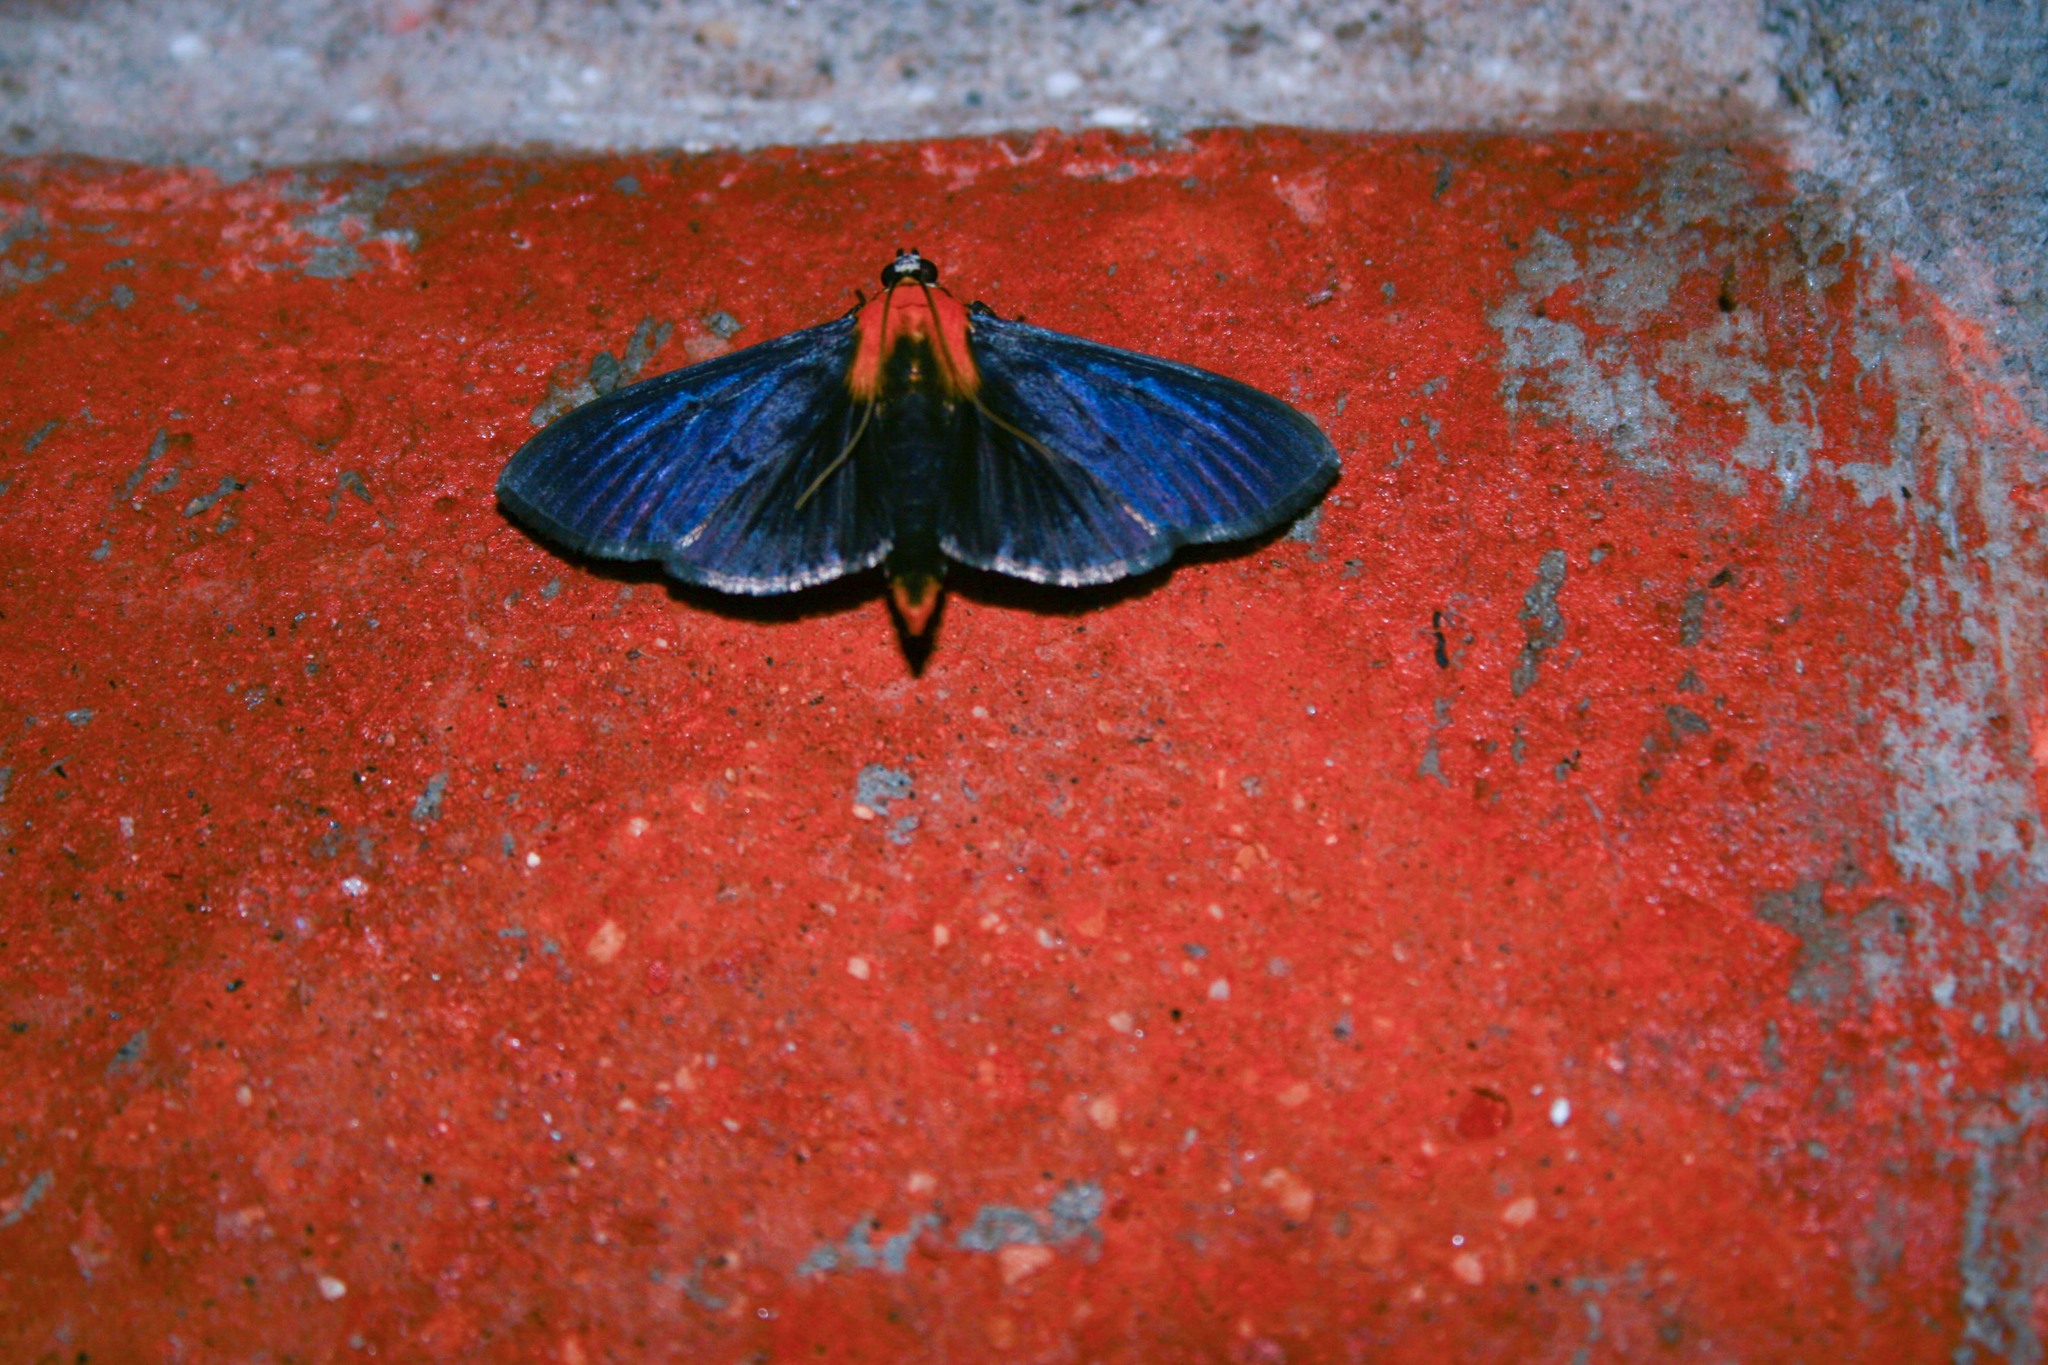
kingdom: Animalia
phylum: Arthropoda
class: Insecta
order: Lepidoptera
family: Crambidae
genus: Phostria
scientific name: Phostria
